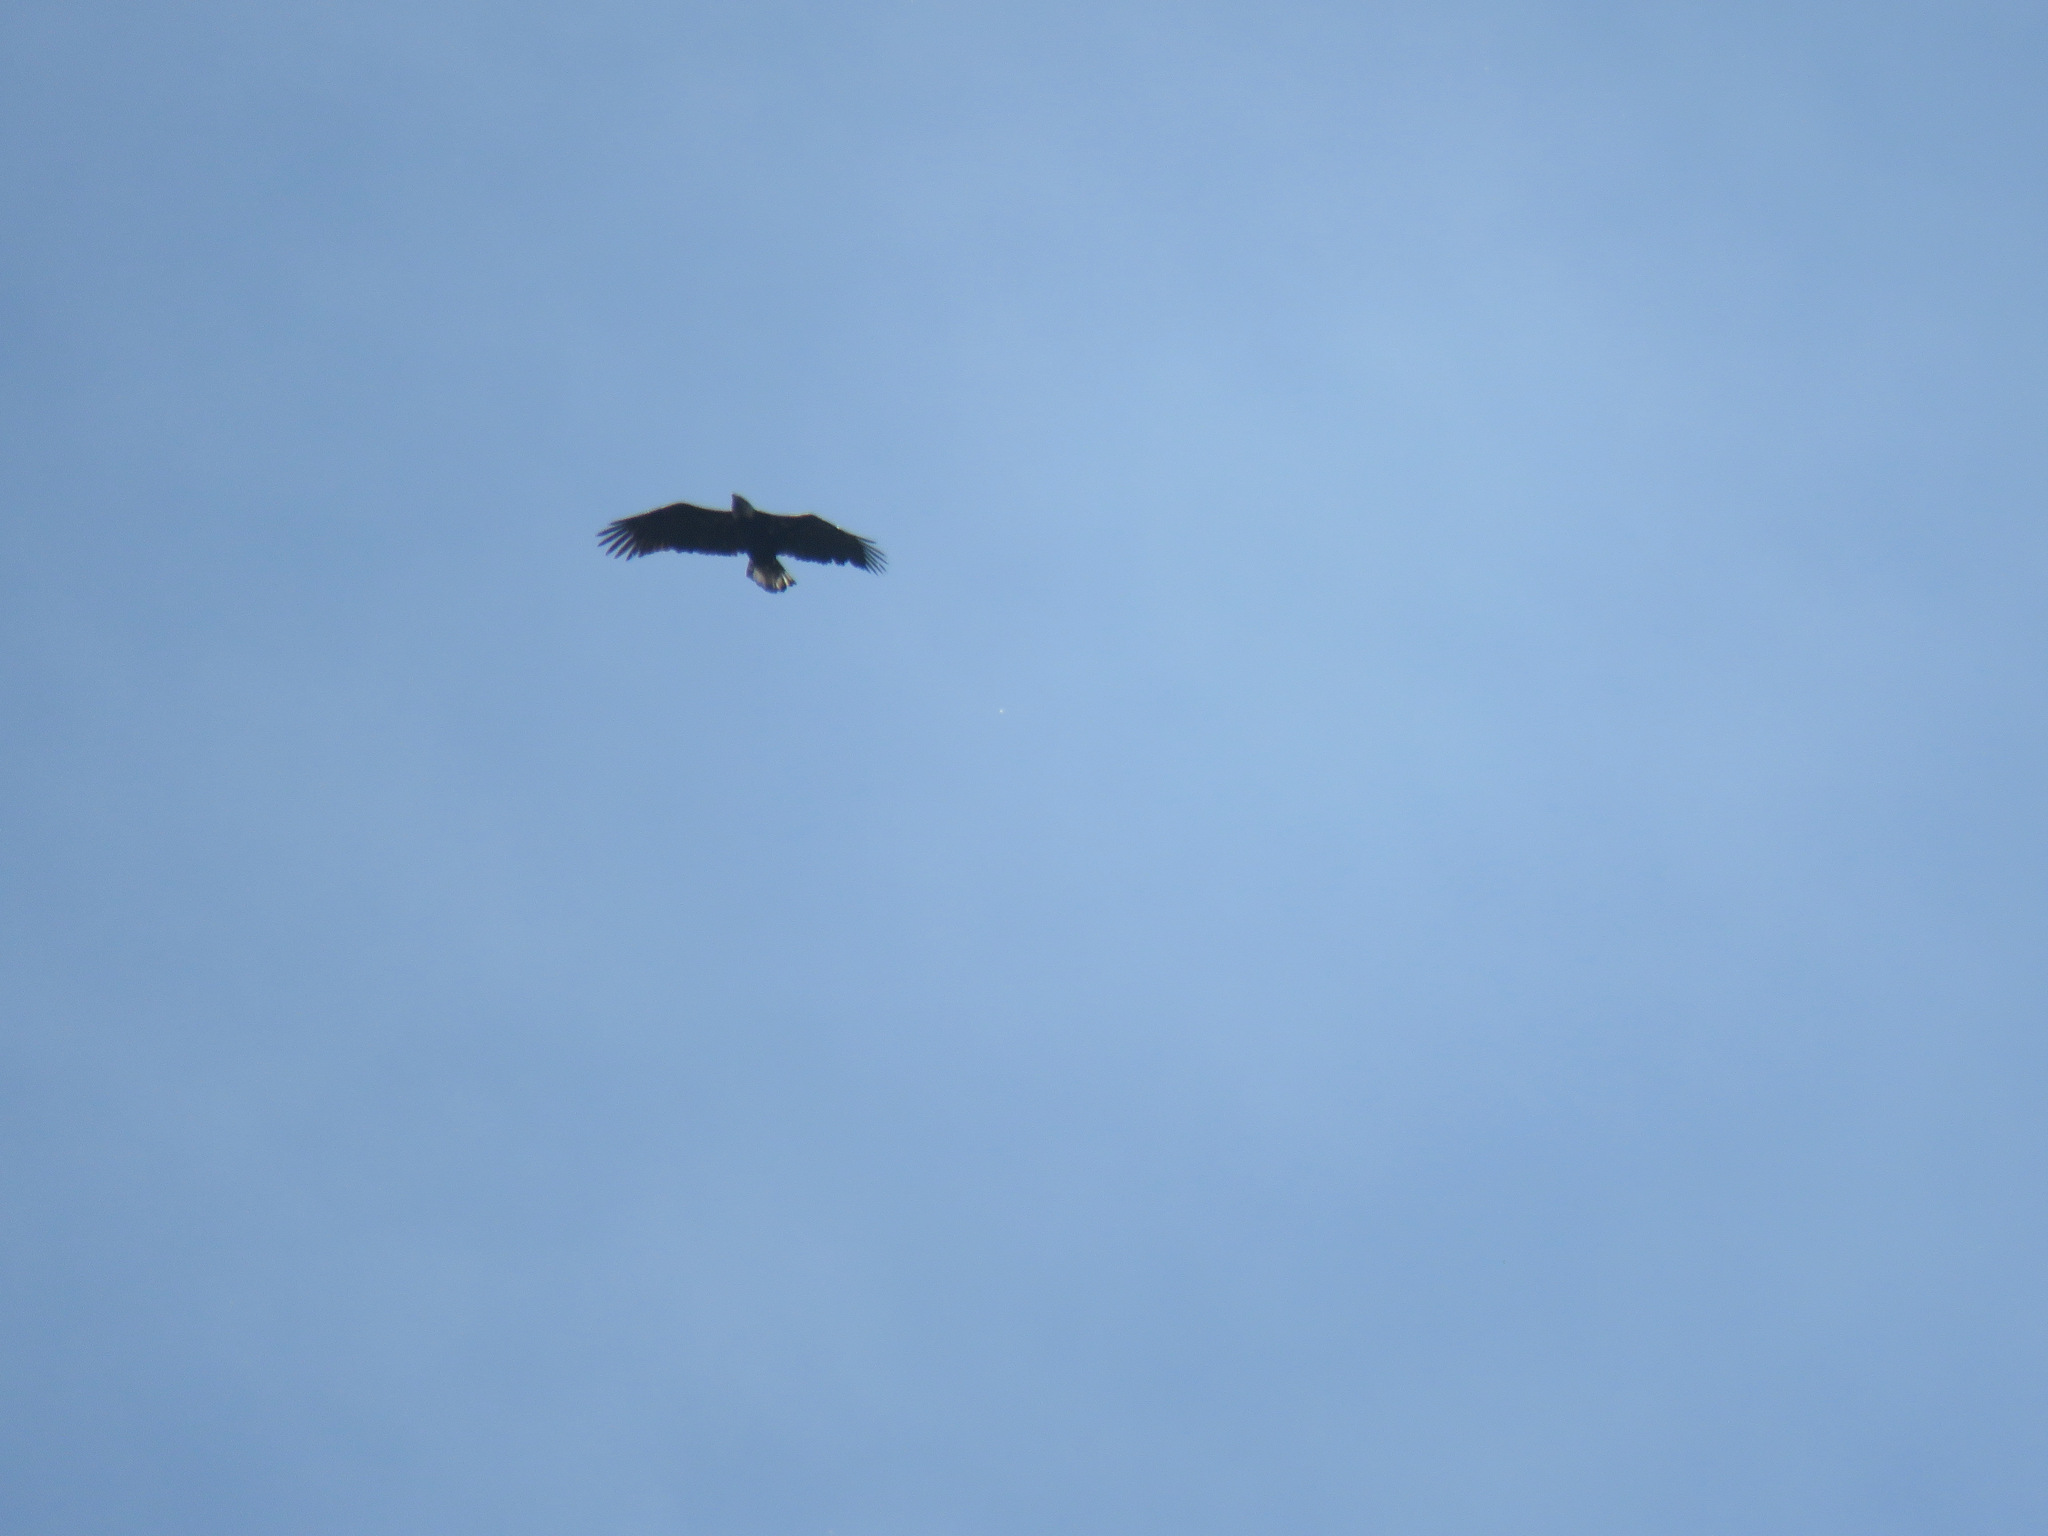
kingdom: Animalia
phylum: Chordata
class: Aves
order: Accipitriformes
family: Accipitridae
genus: Haliaeetus
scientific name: Haliaeetus leucocephalus
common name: Bald eagle
